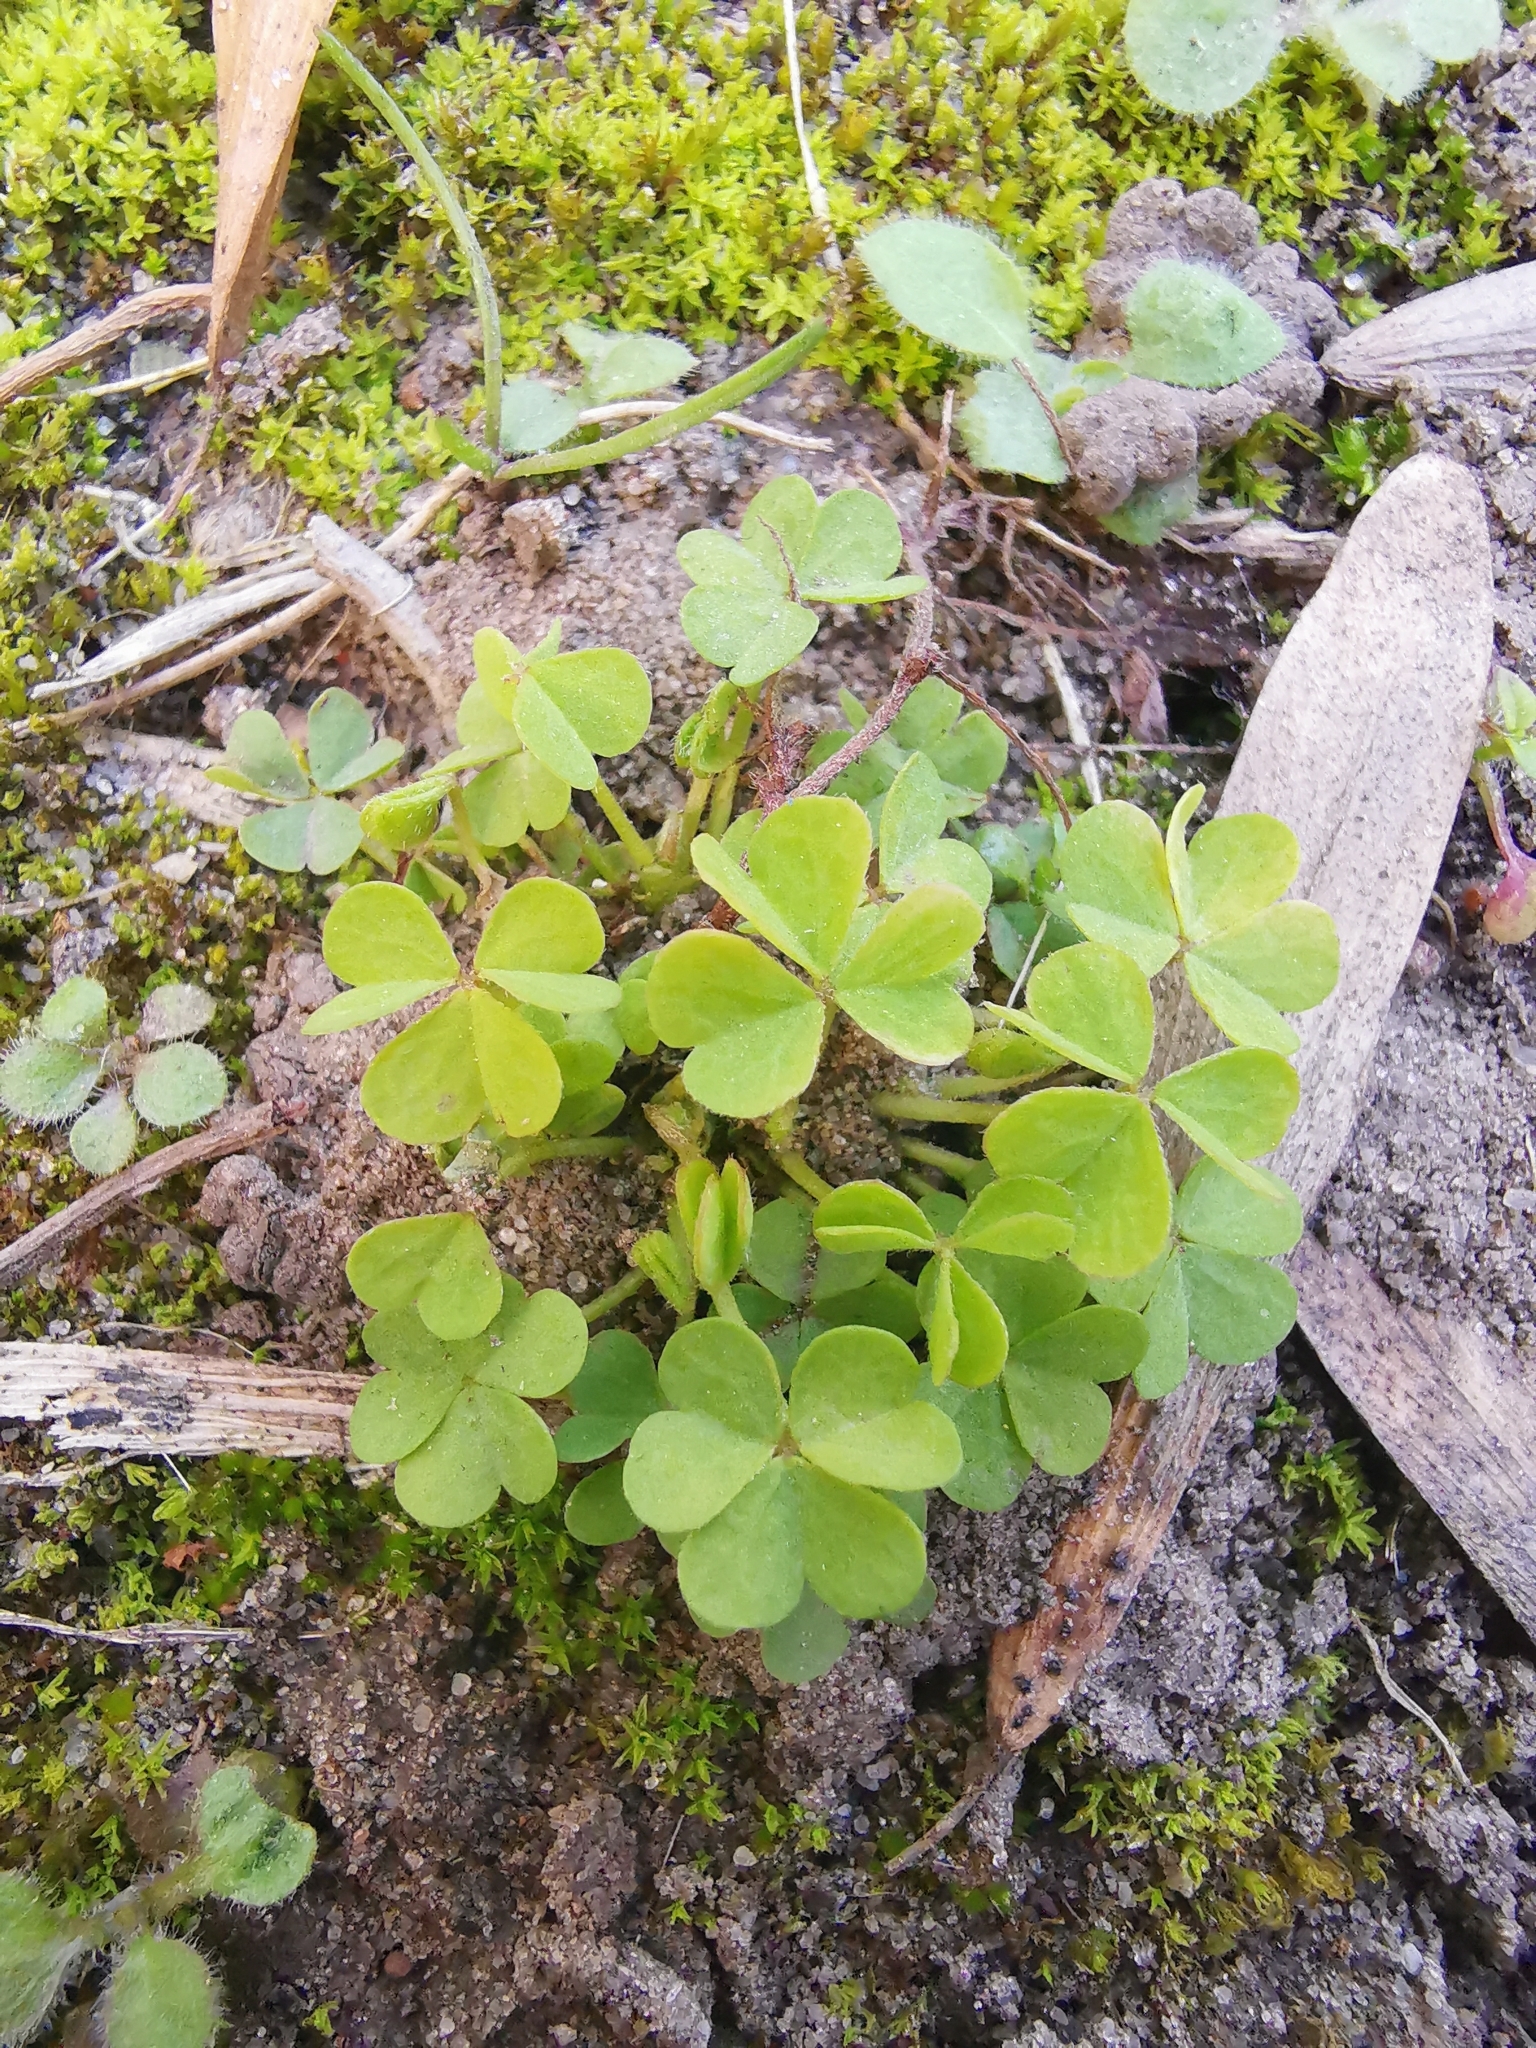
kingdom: Plantae
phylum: Tracheophyta
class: Magnoliopsida
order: Oxalidales
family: Oxalidaceae
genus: Oxalis
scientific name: Oxalis corniculata
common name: Procumbent yellow-sorrel
